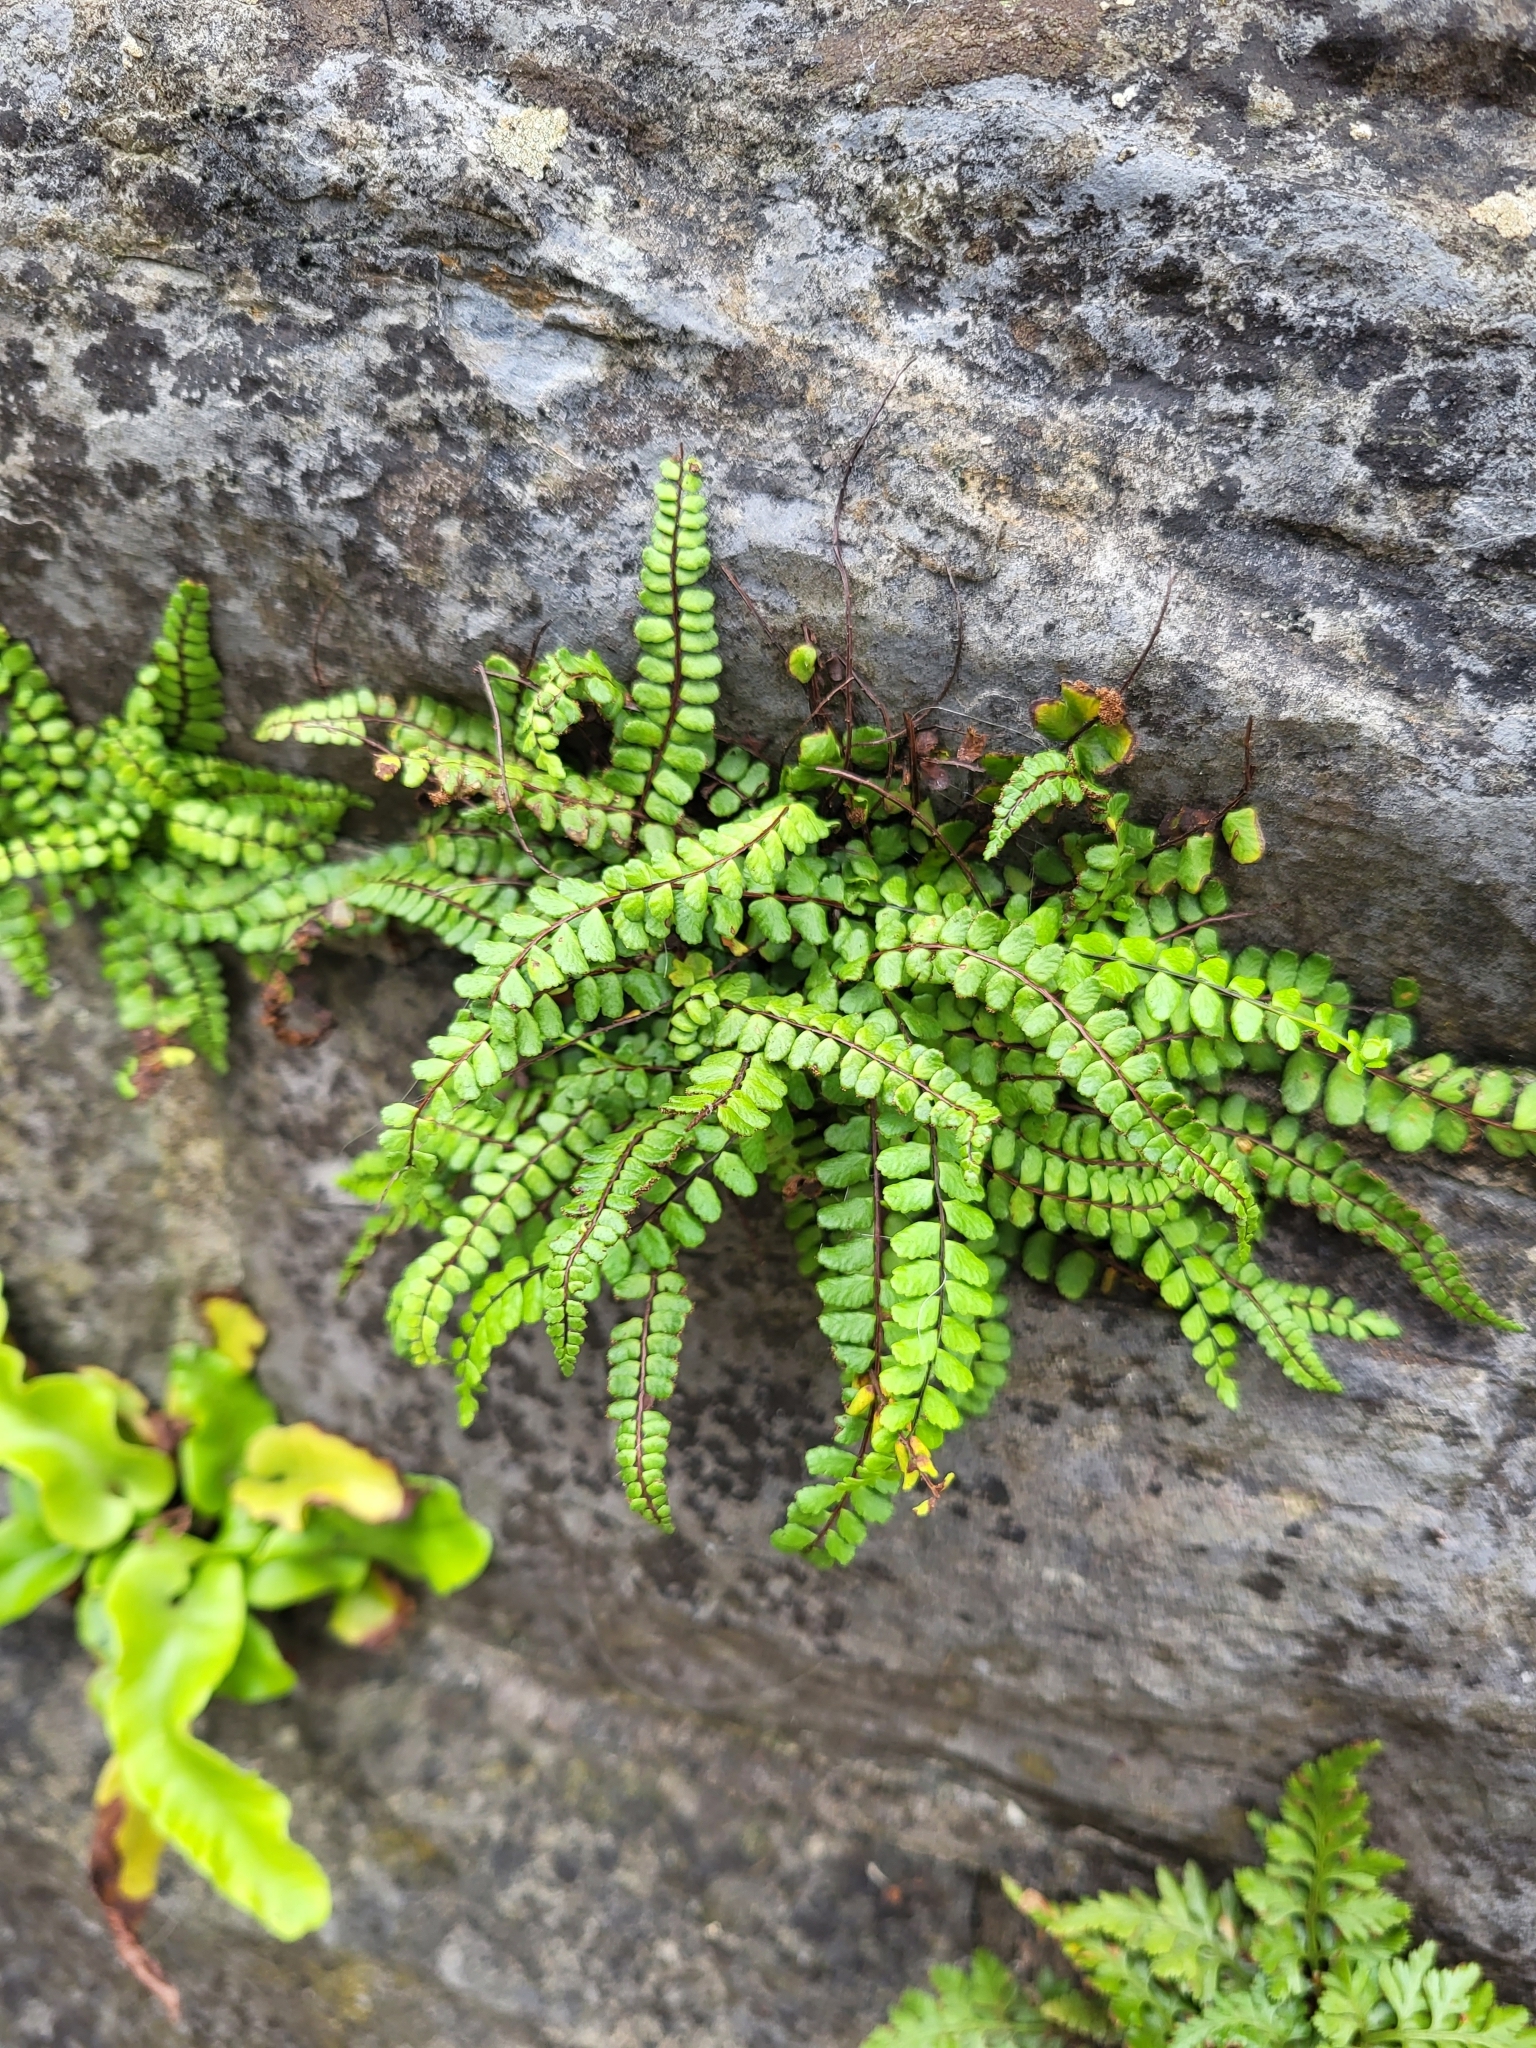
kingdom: Plantae
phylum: Tracheophyta
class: Polypodiopsida
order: Polypodiales
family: Aspleniaceae
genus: Asplenium
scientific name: Asplenium trichomanes
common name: Maidenhair spleenwort
